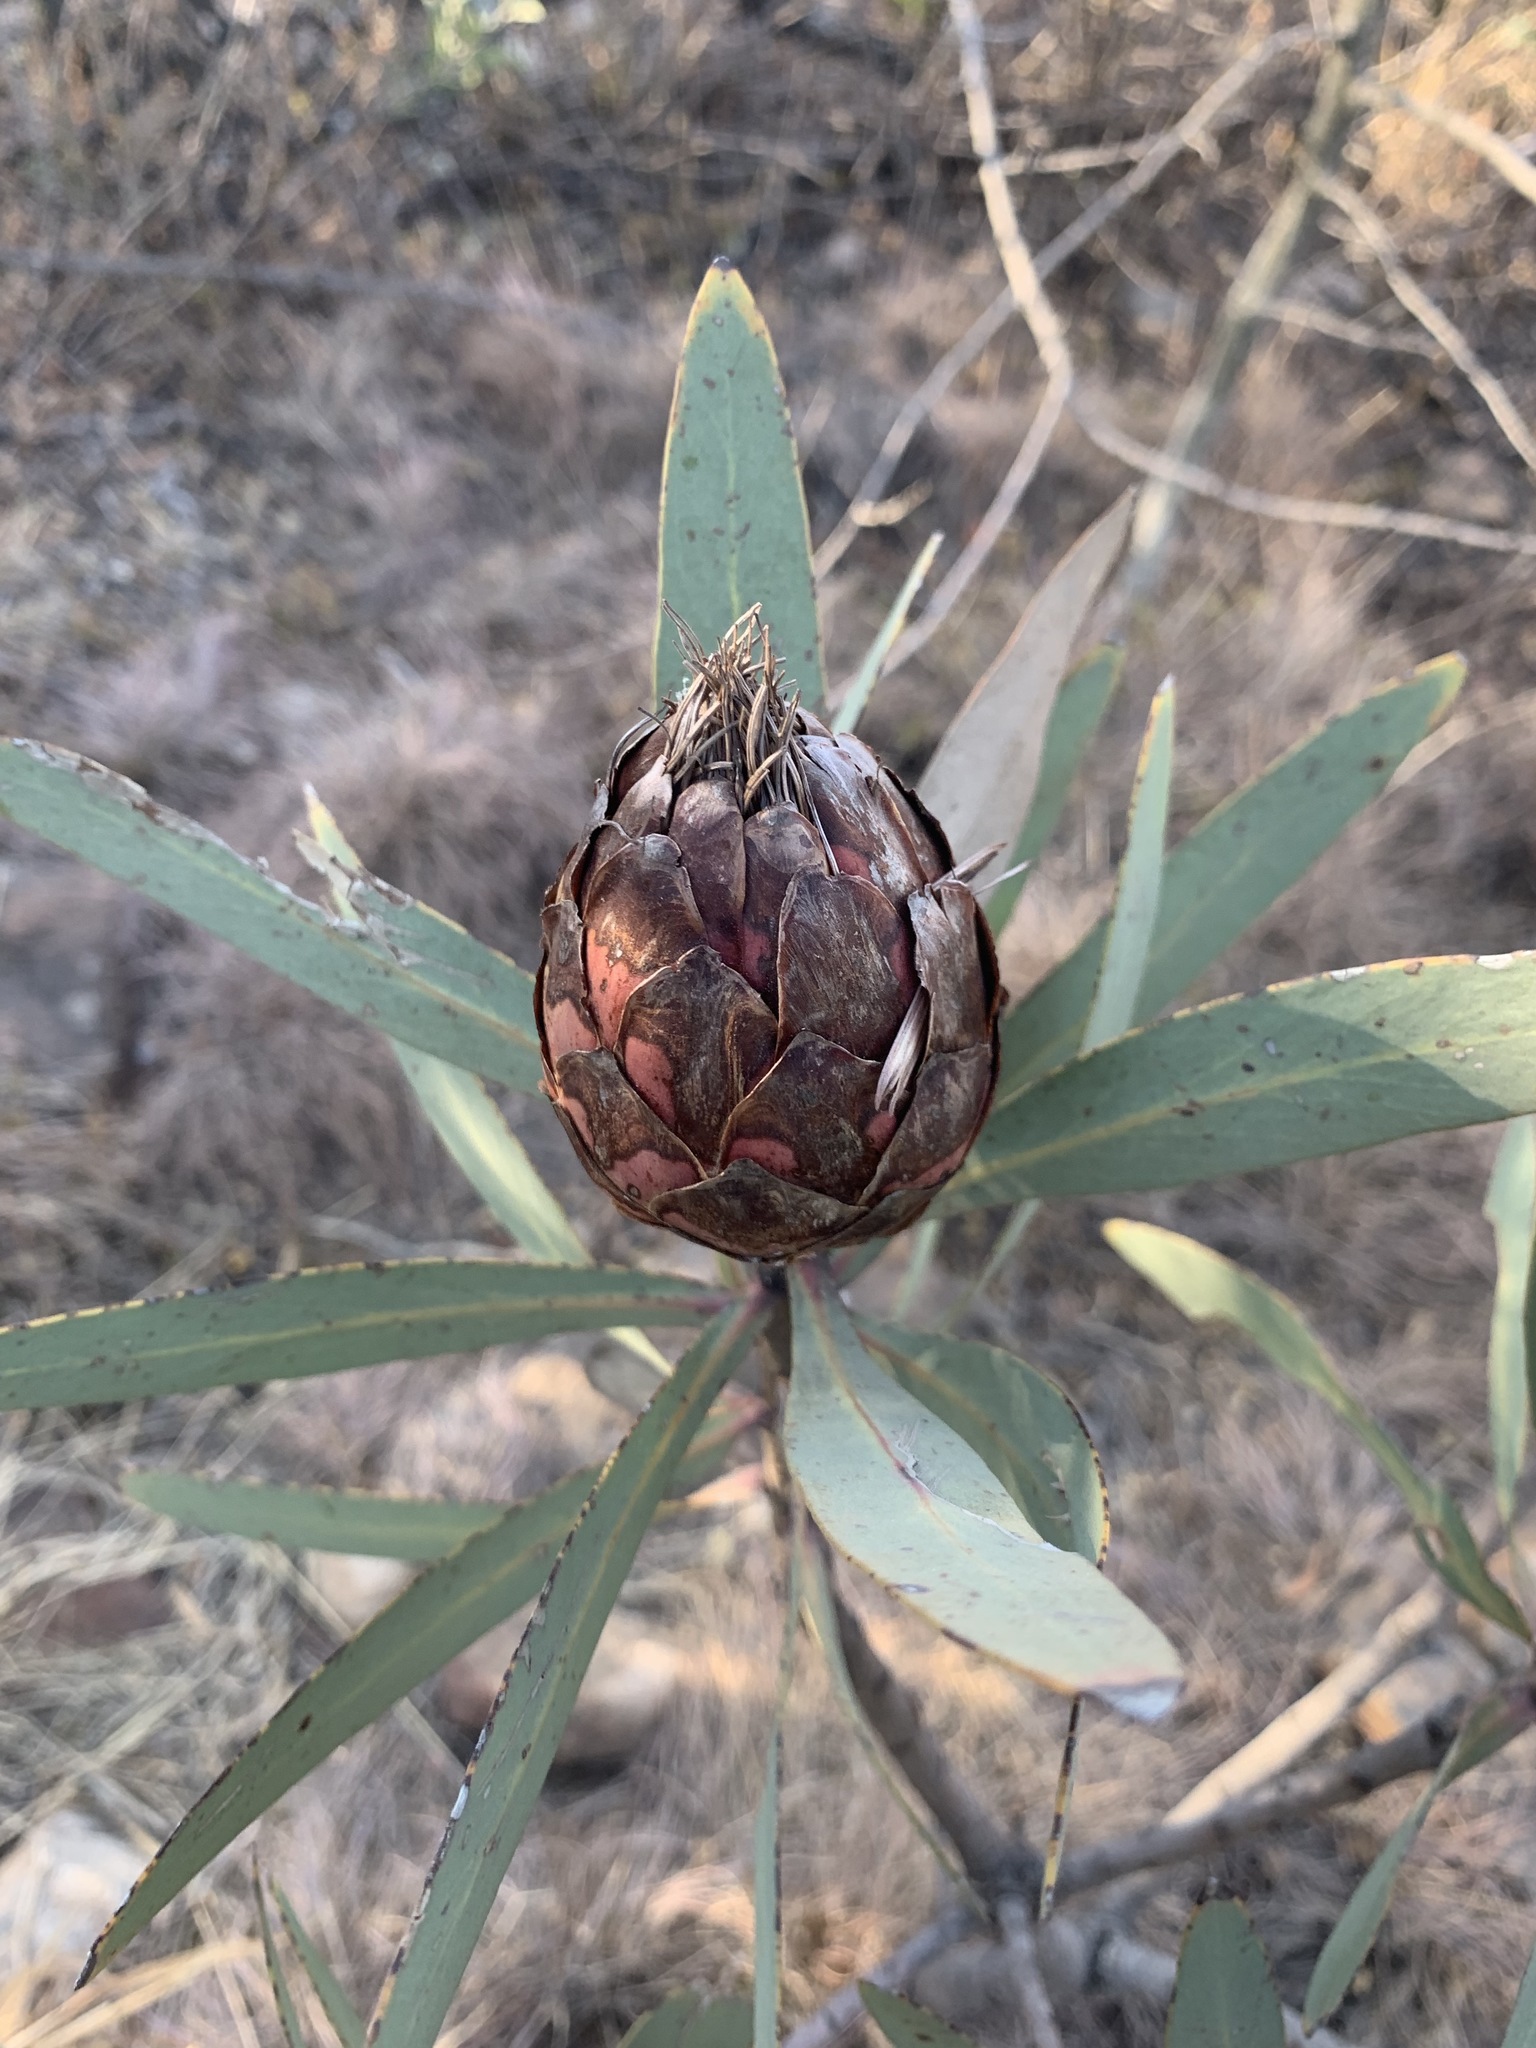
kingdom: Plantae
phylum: Tracheophyta
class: Magnoliopsida
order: Proteales
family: Proteaceae
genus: Protea
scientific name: Protea caffra
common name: Common sugarbush
